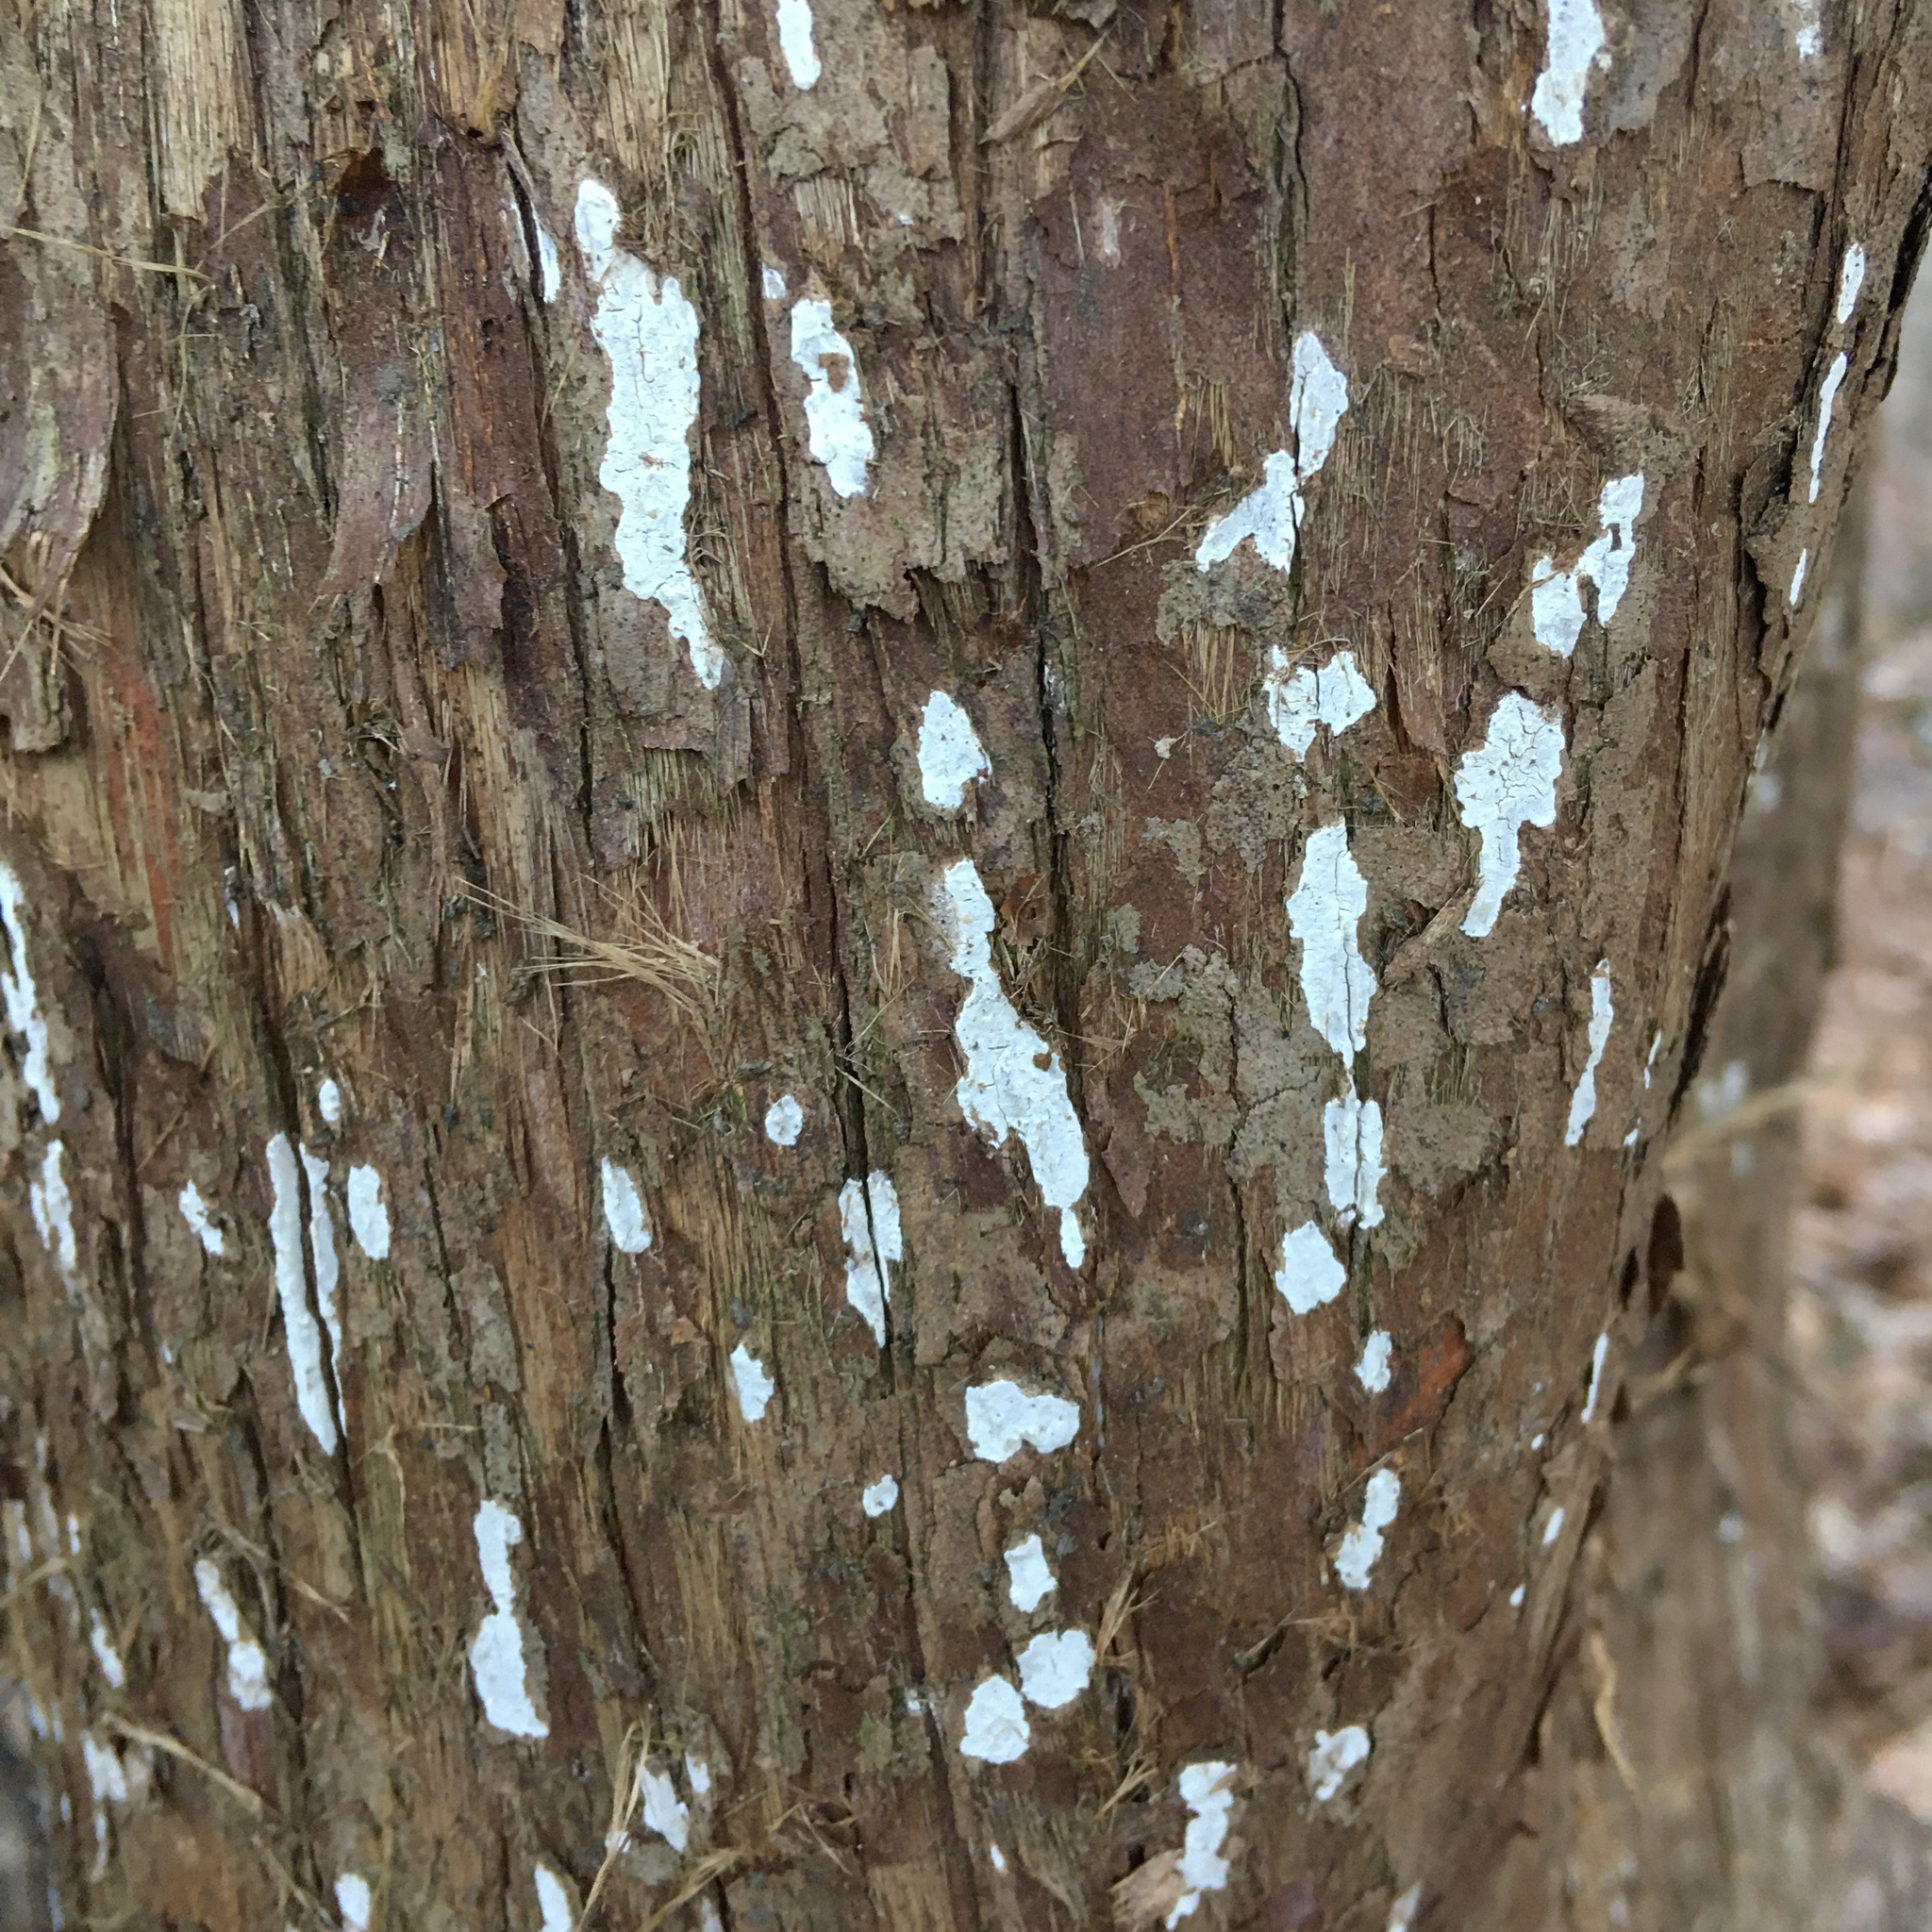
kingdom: Fungi
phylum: Basidiomycota
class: Agaricomycetes
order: Agaricales
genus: Dendrothele
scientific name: Dendrothele nivosa
